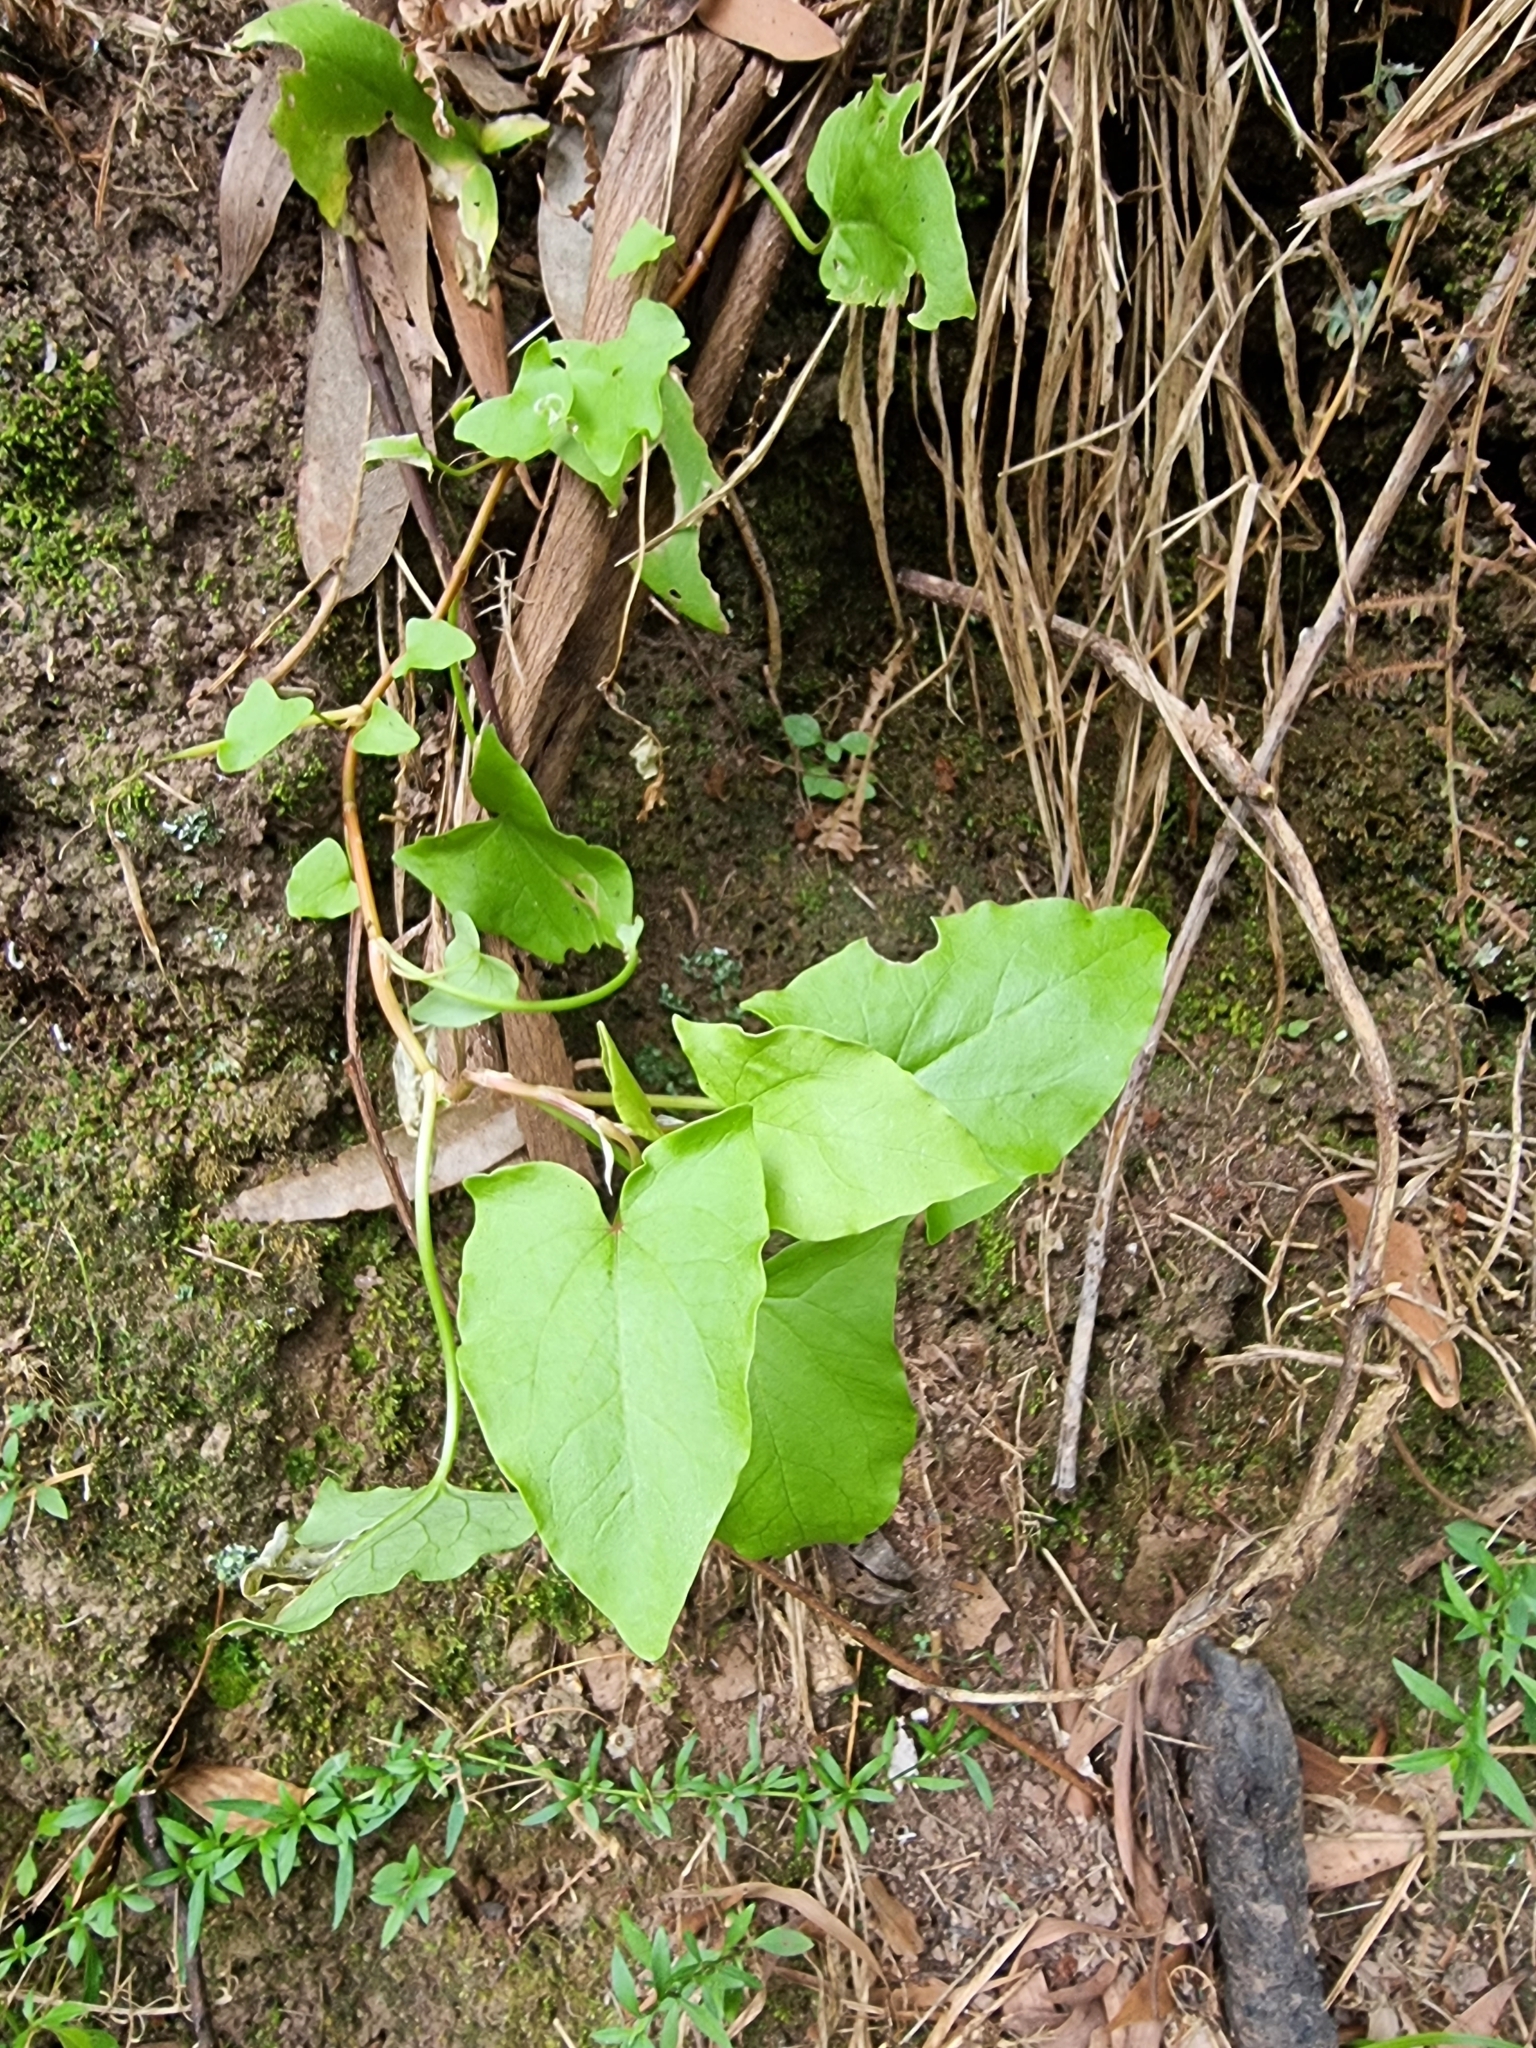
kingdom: Plantae
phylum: Tracheophyta
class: Magnoliopsida
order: Caryophyllales
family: Polygonaceae
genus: Rumex
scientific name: Rumex maderensis
